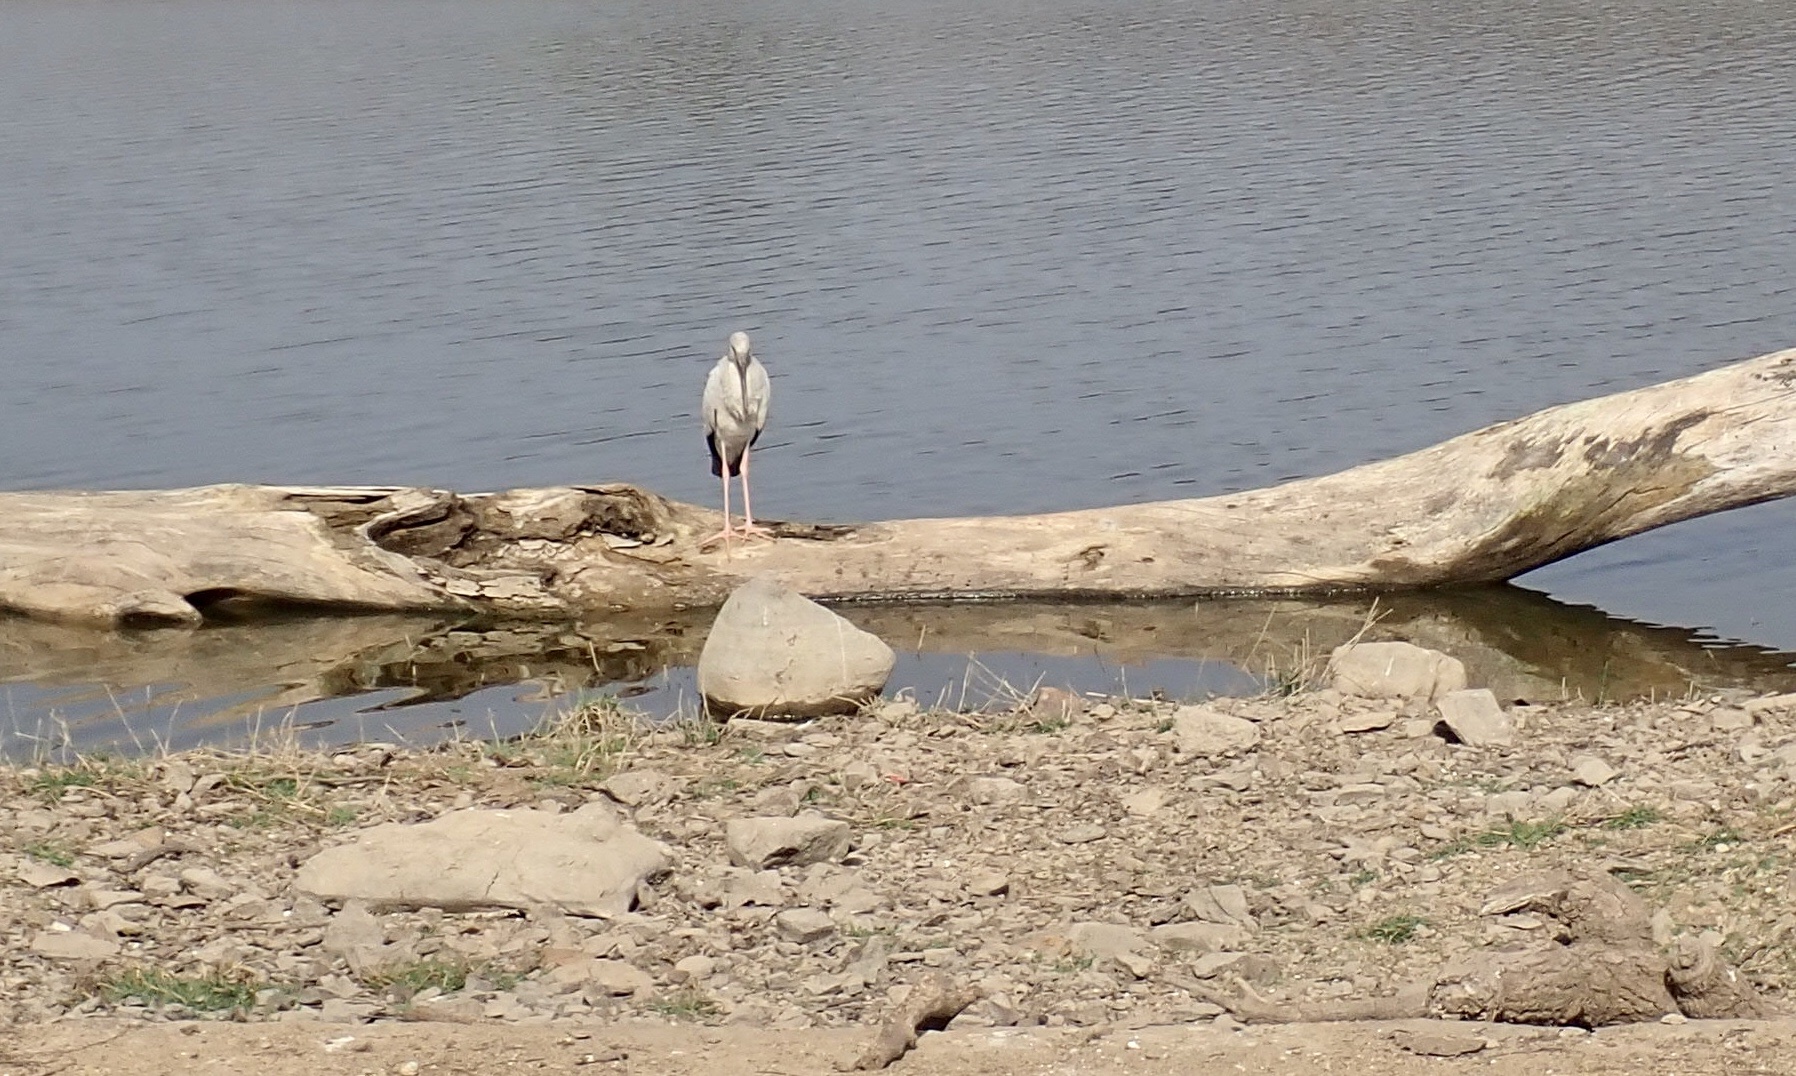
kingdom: Animalia
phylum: Chordata
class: Aves
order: Ciconiiformes
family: Ciconiidae
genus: Anastomus
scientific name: Anastomus oscitans
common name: Asian openbill
